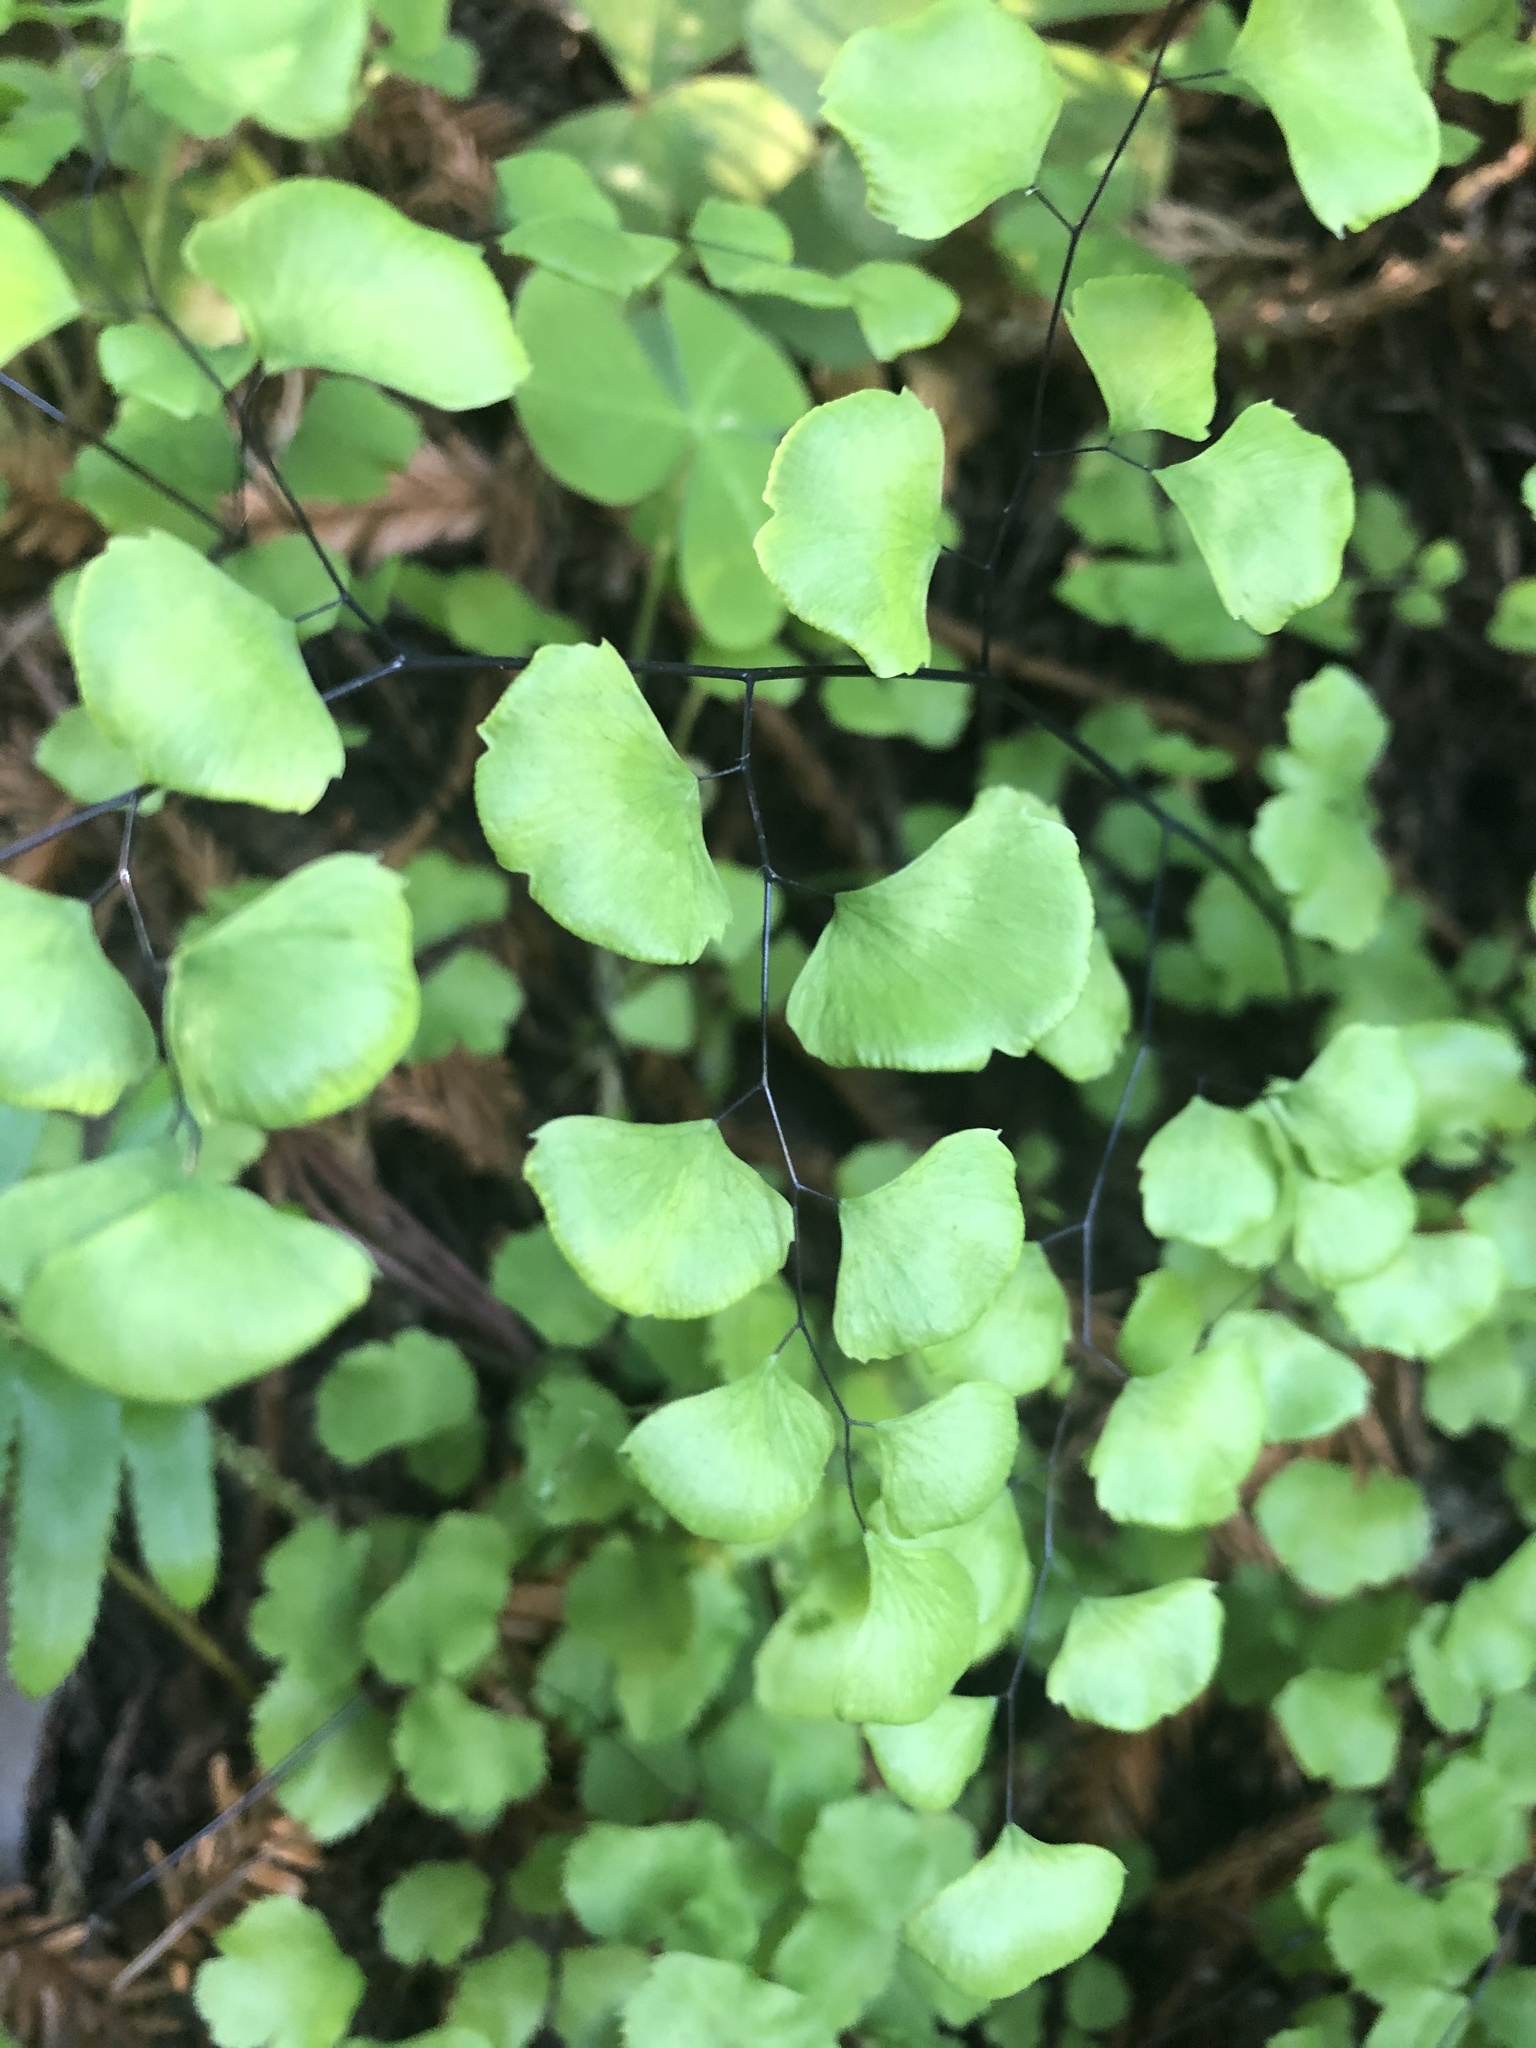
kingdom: Plantae
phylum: Tracheophyta
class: Polypodiopsida
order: Polypodiales
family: Pteridaceae
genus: Adiantum
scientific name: Adiantum jordanii
